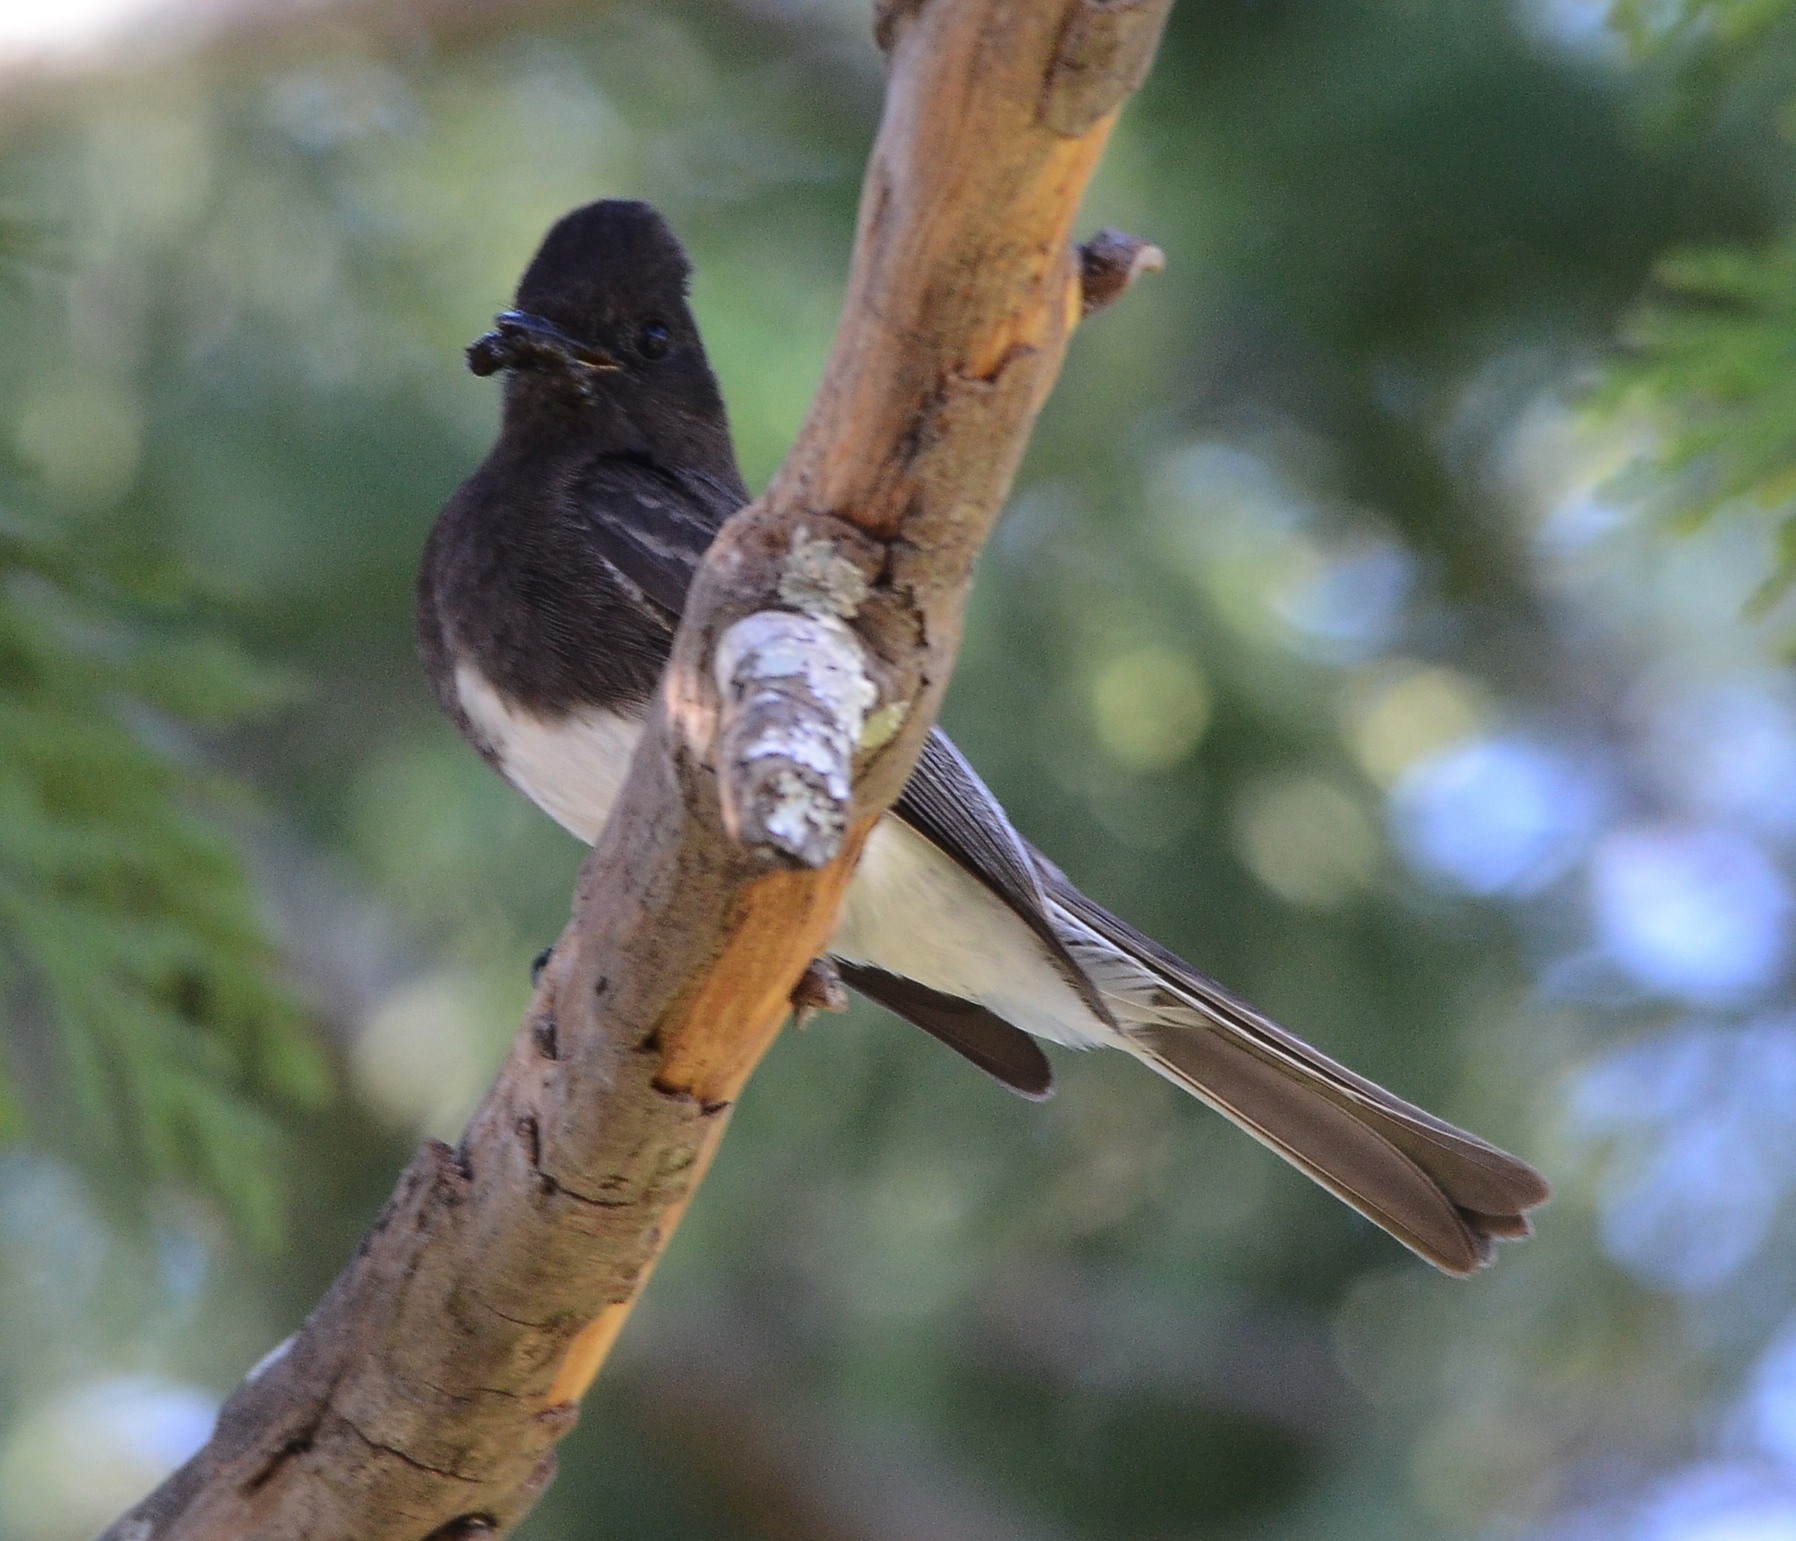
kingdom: Animalia
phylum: Chordata
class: Aves
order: Passeriformes
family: Tyrannidae
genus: Sayornis
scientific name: Sayornis nigricans
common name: Black phoebe
